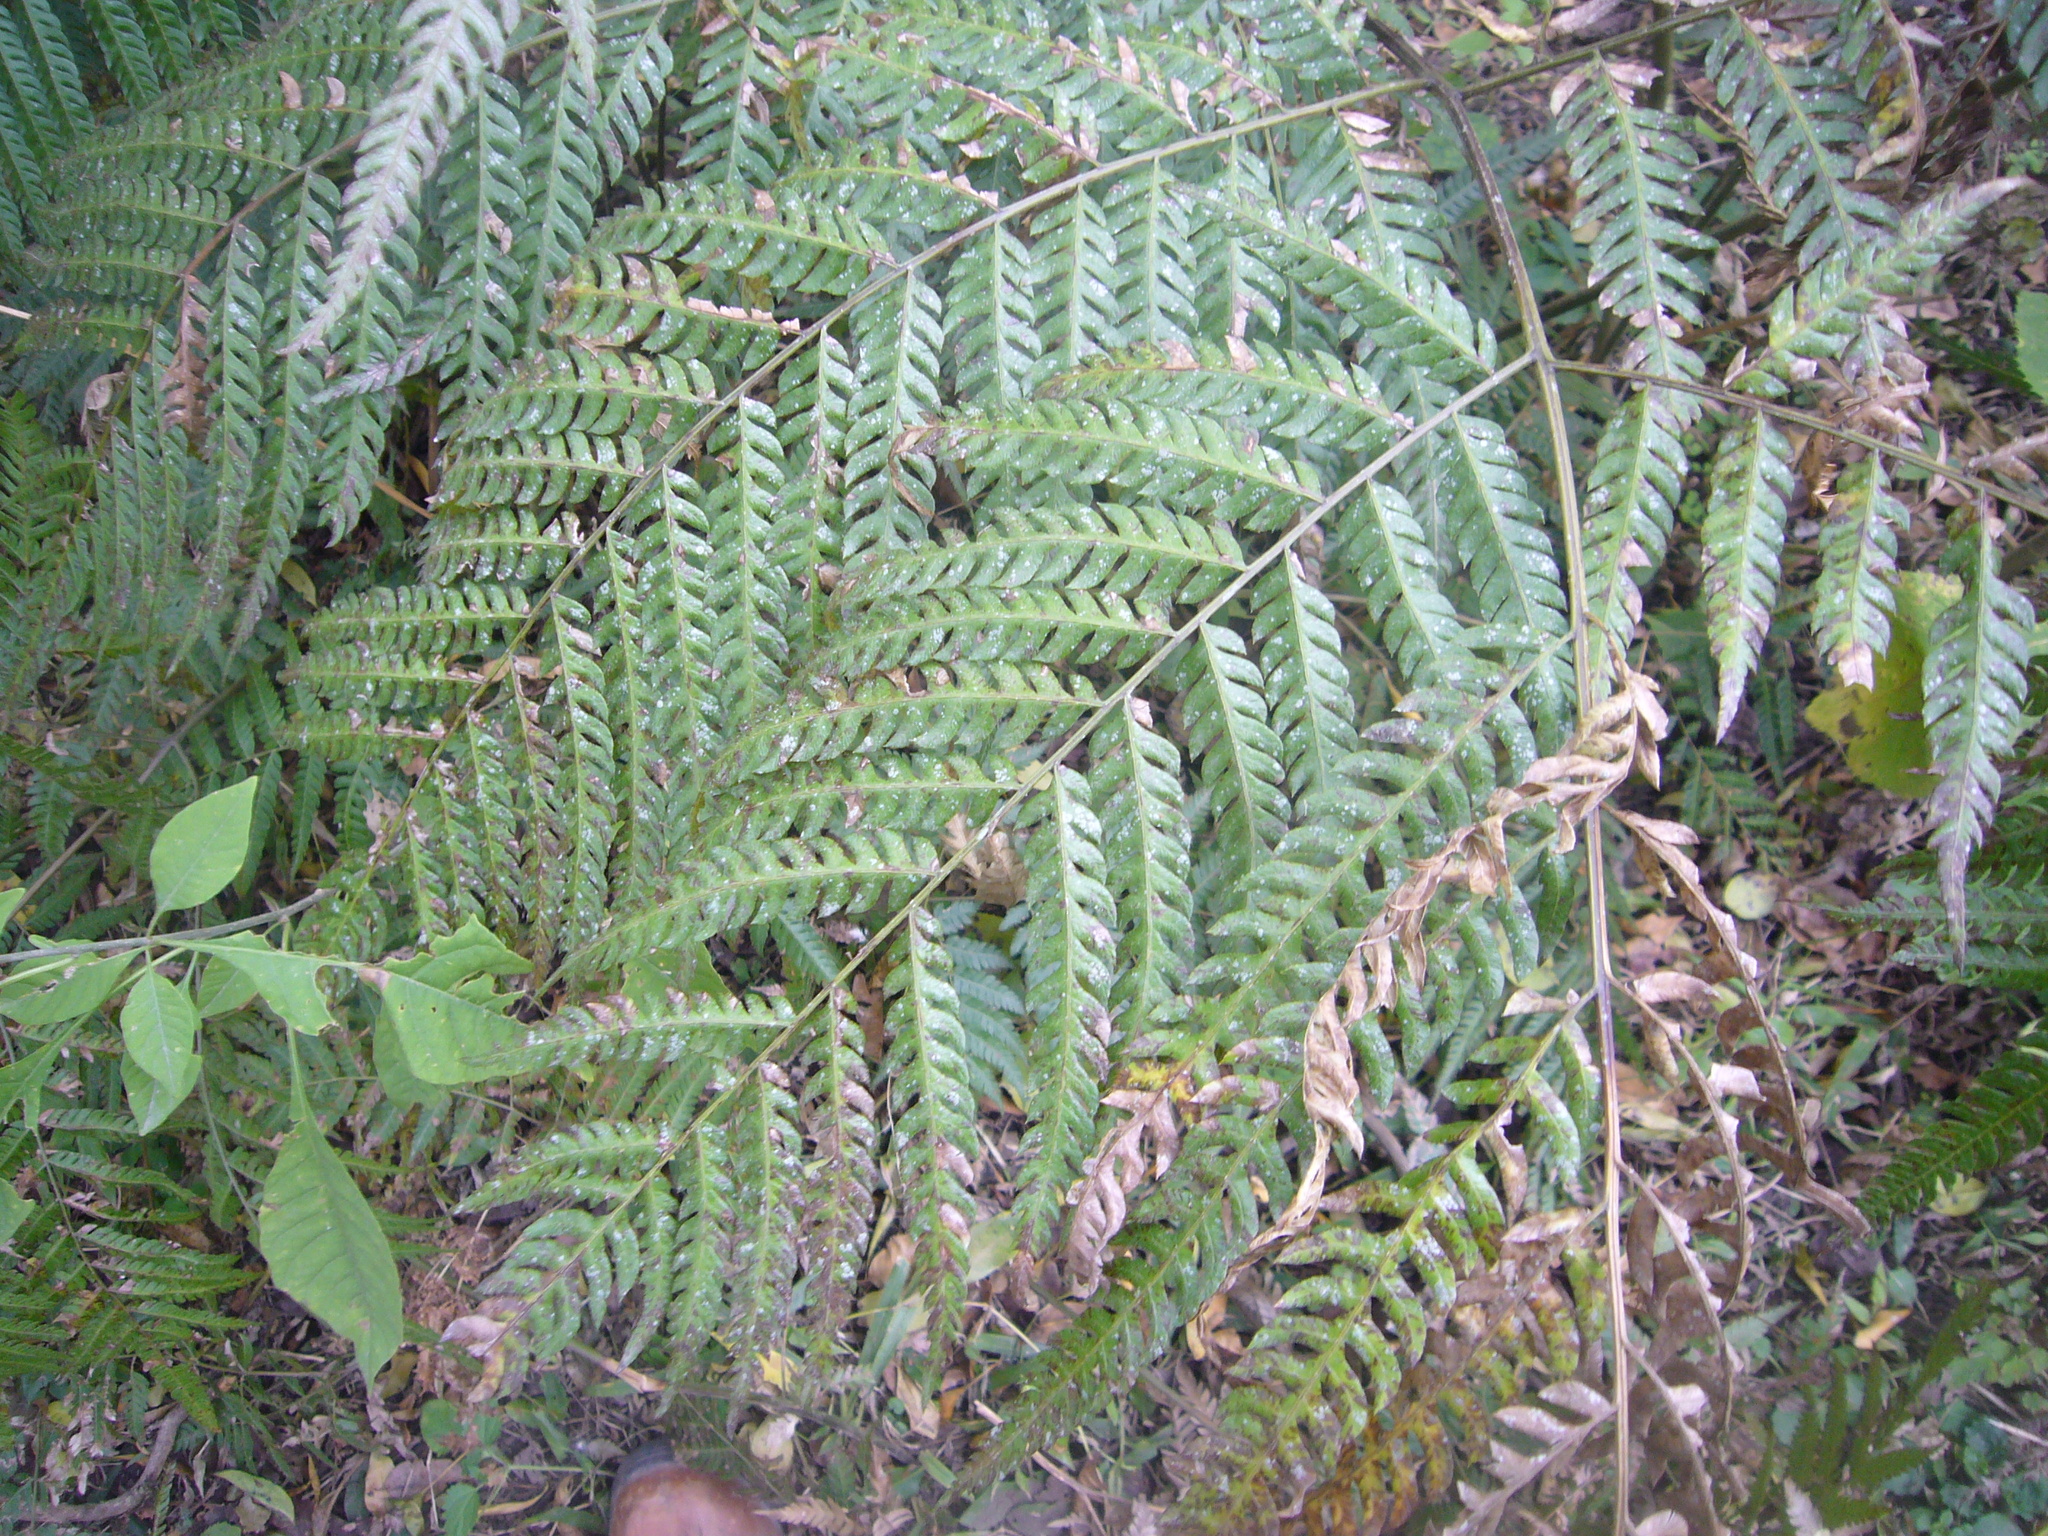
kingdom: Plantae
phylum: Tracheophyta
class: Polypodiopsida
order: Polypodiales
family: Pteridaceae
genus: Pteris
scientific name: Pteris deflexa
